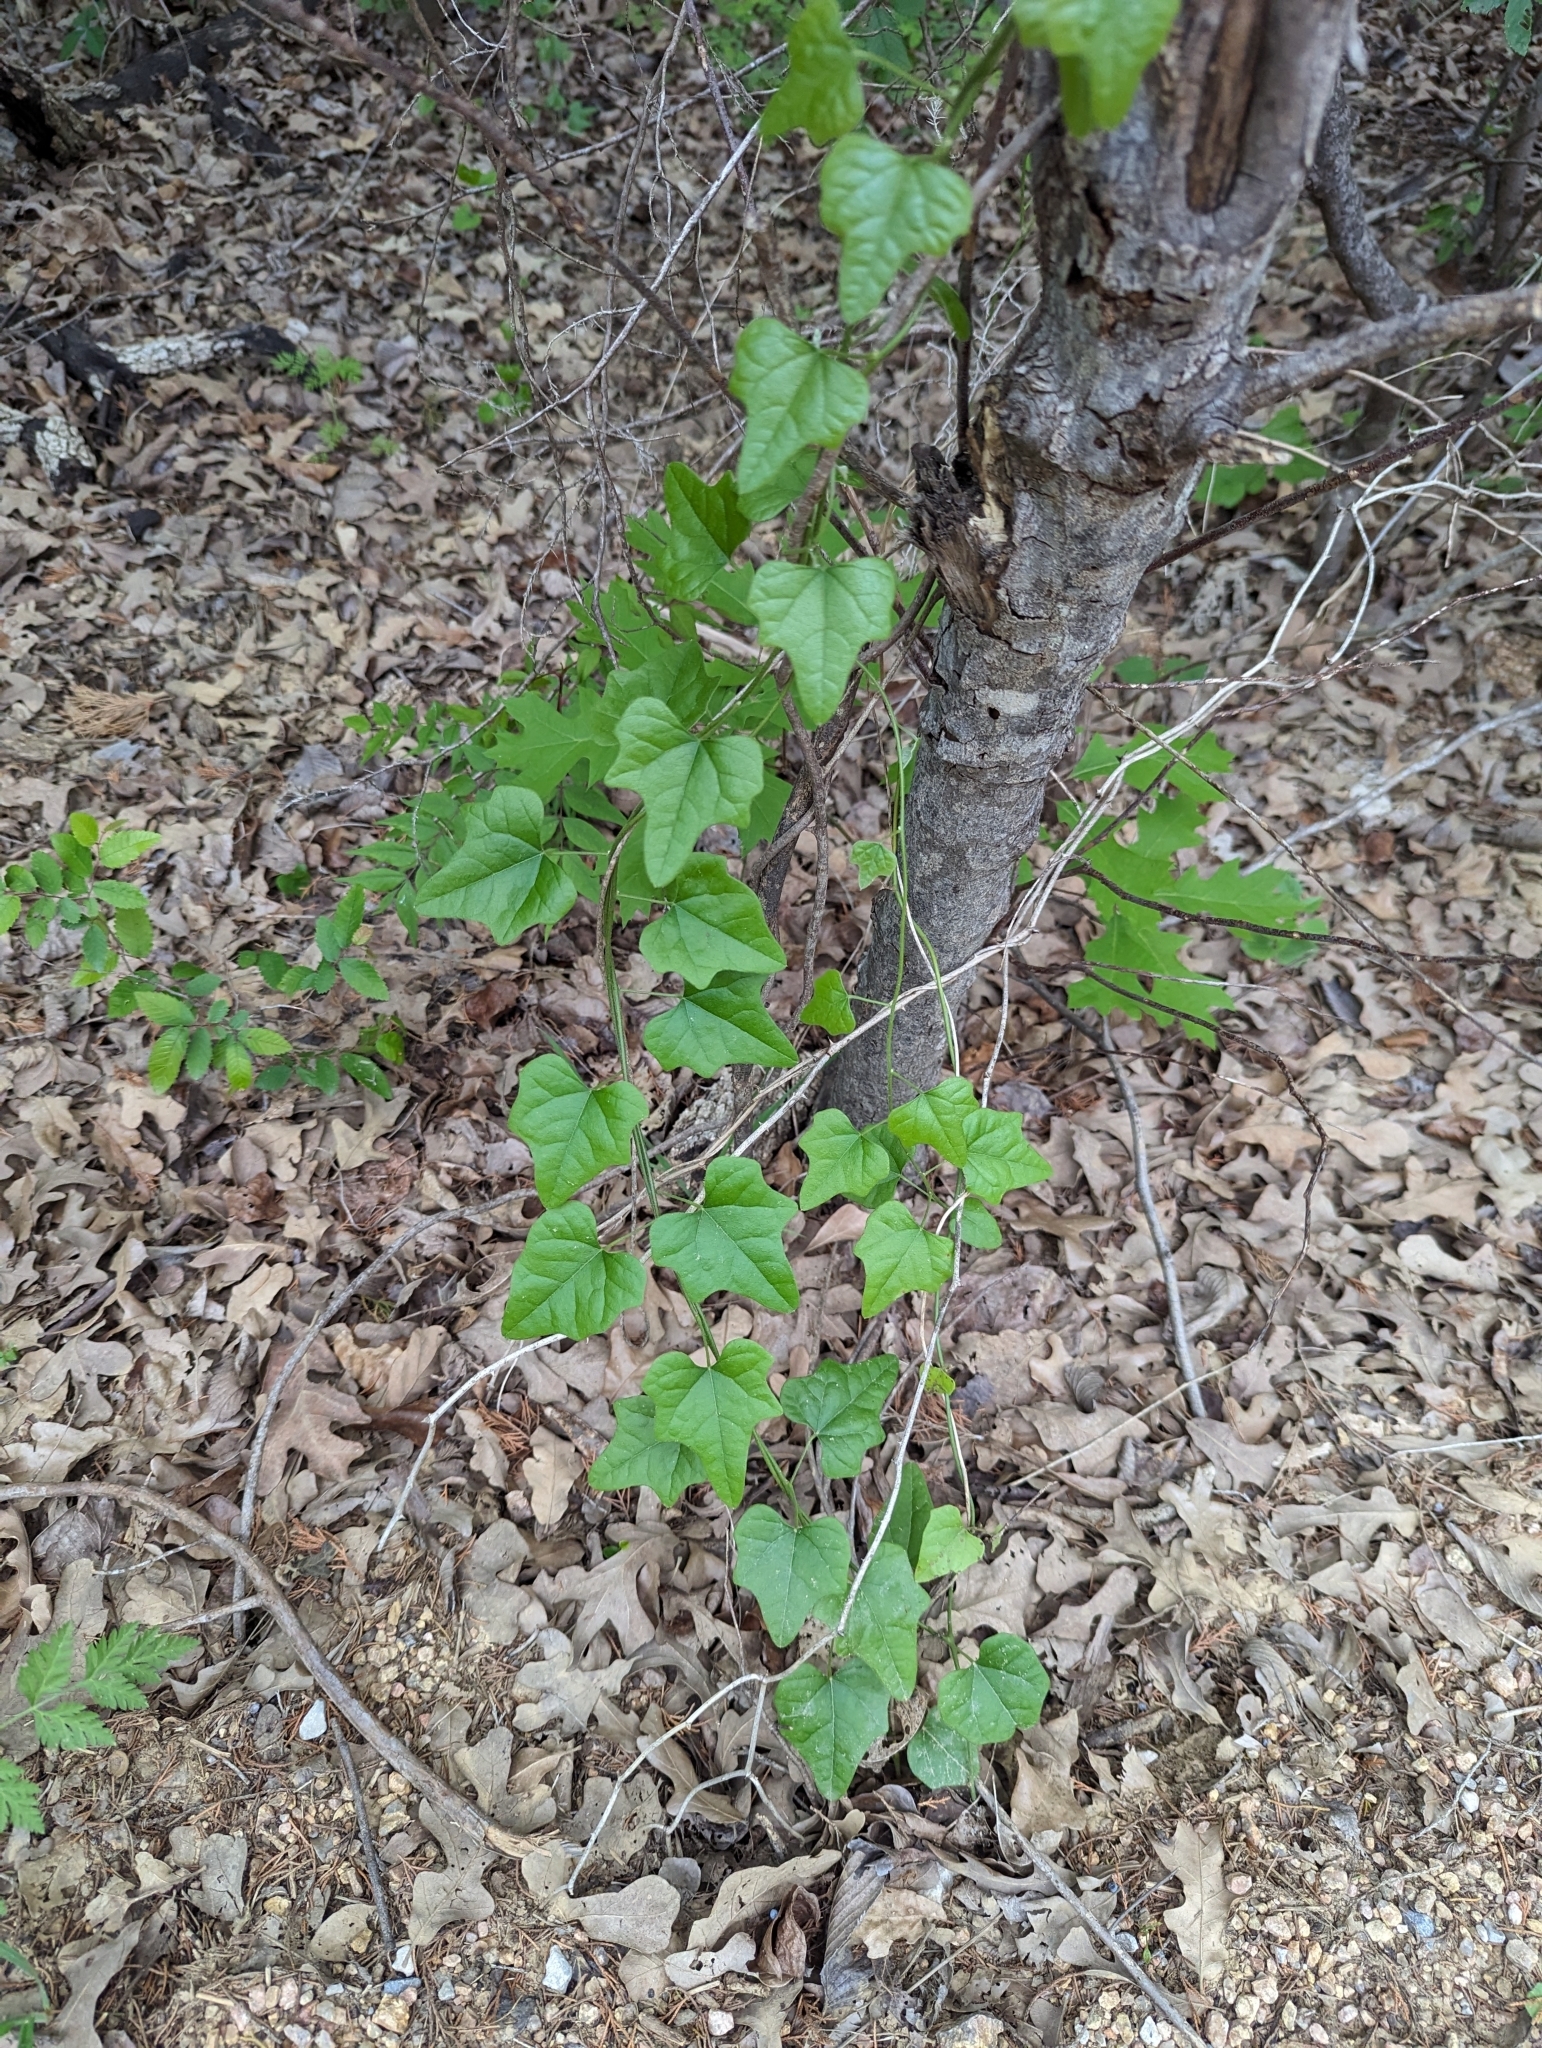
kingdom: Plantae
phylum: Tracheophyta
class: Magnoliopsida
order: Ranunculales
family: Menispermaceae
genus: Cocculus
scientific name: Cocculus carolinus
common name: Carolina moonseed
